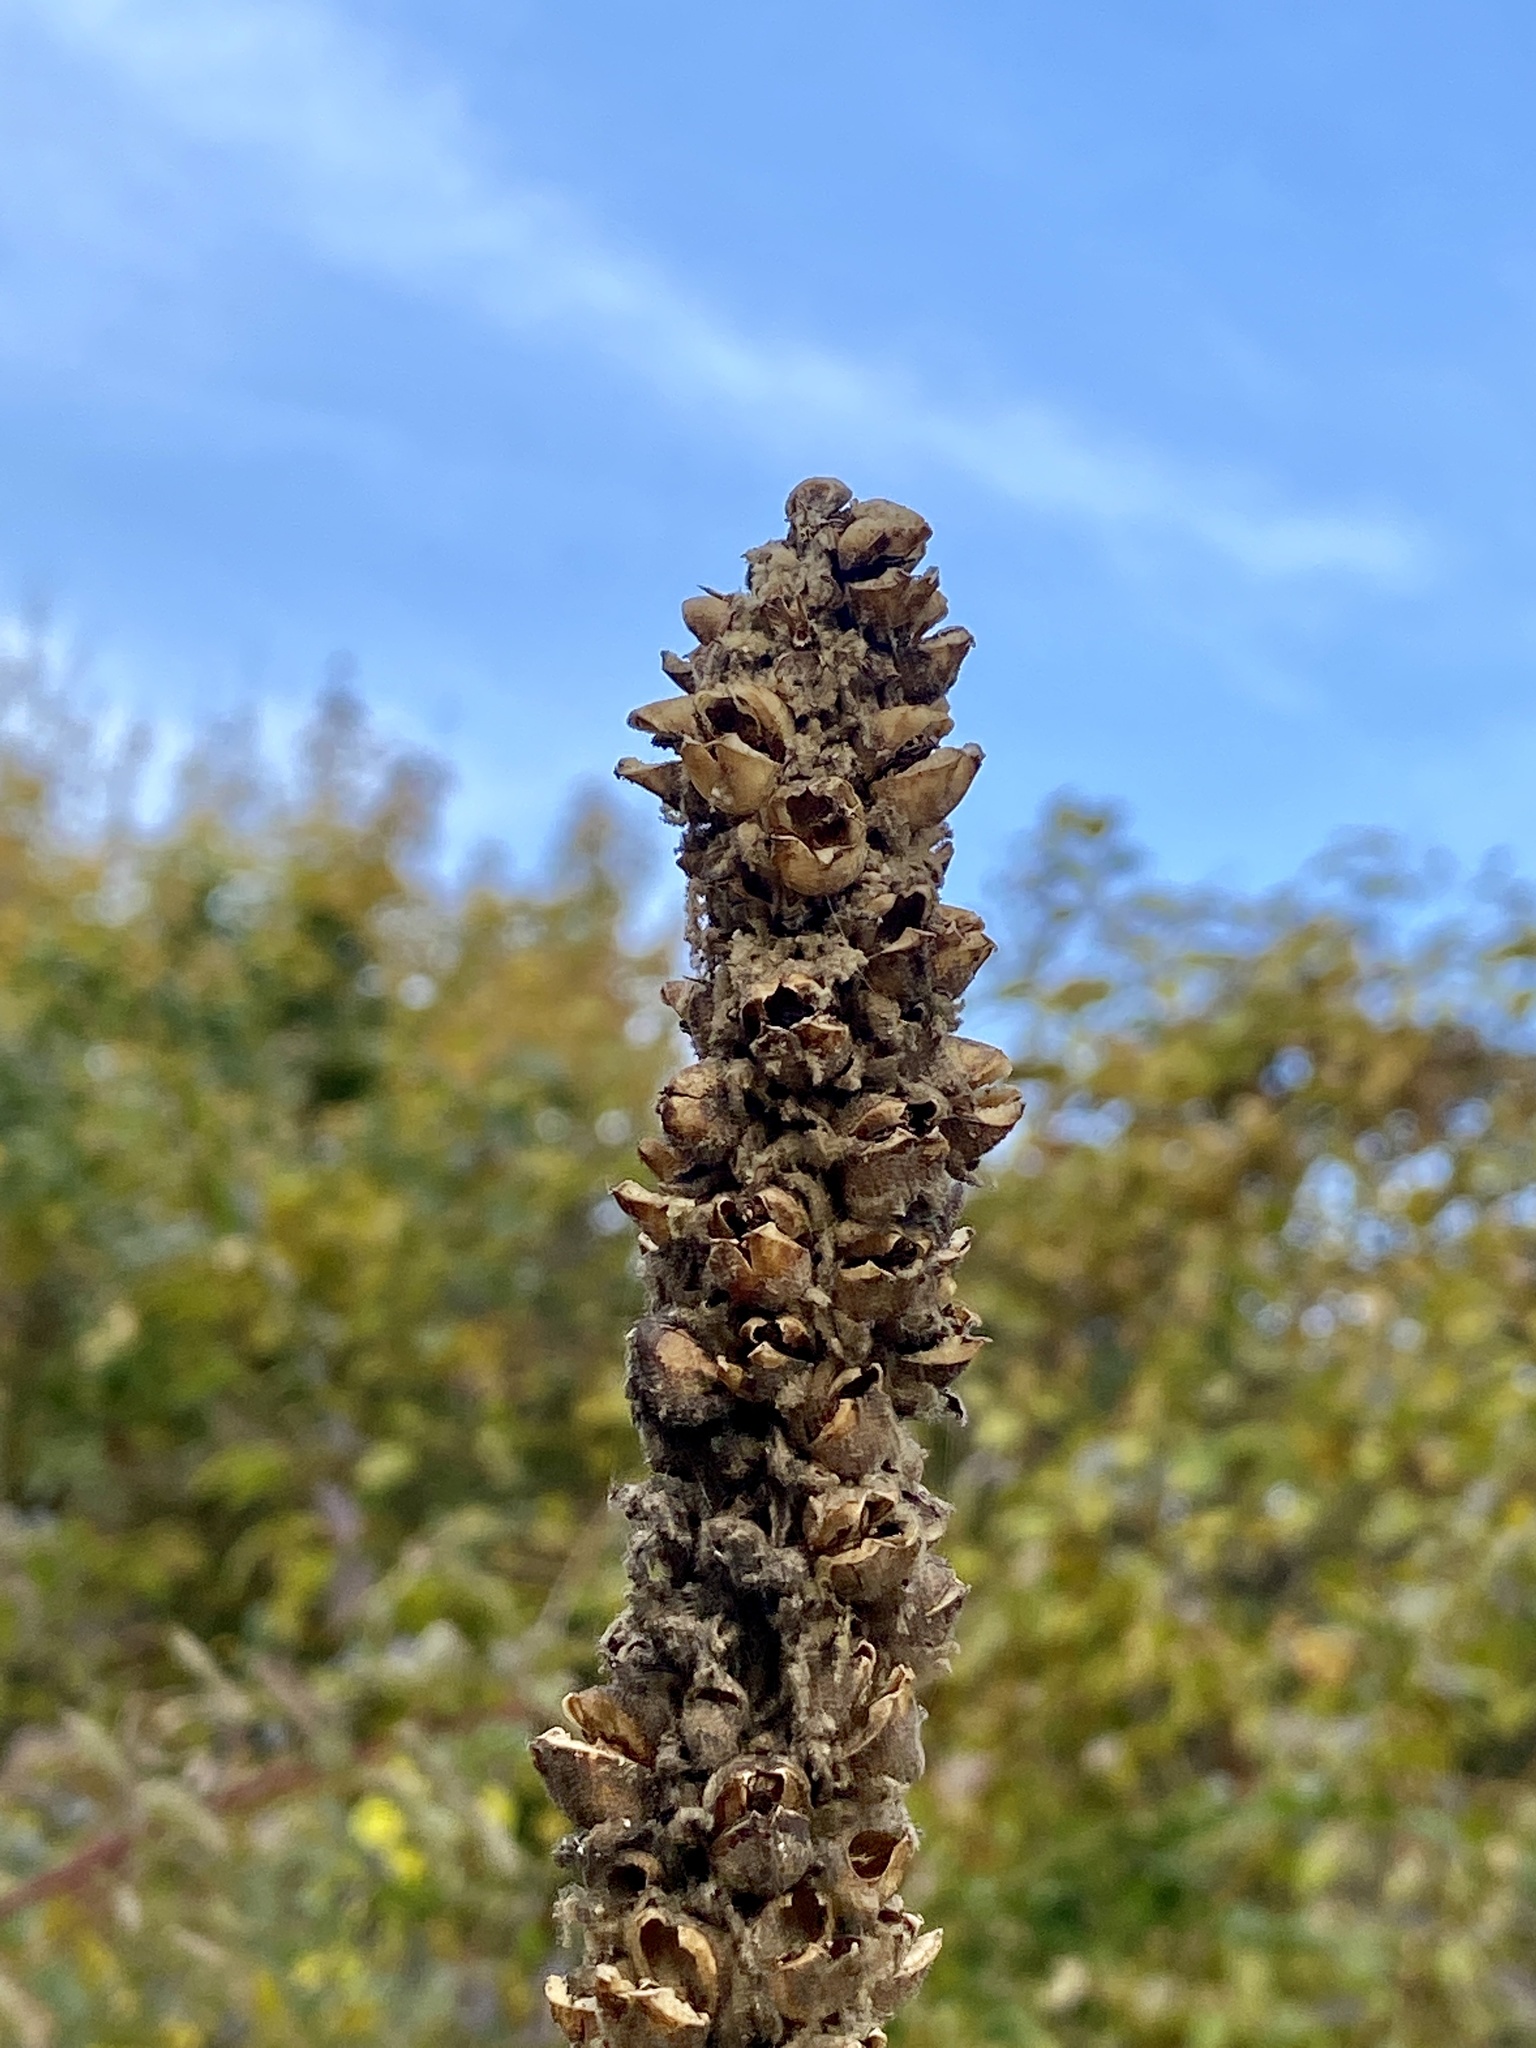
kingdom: Plantae
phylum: Tracheophyta
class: Magnoliopsida
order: Lamiales
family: Scrophulariaceae
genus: Verbascum
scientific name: Verbascum thapsus
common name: Common mullein
